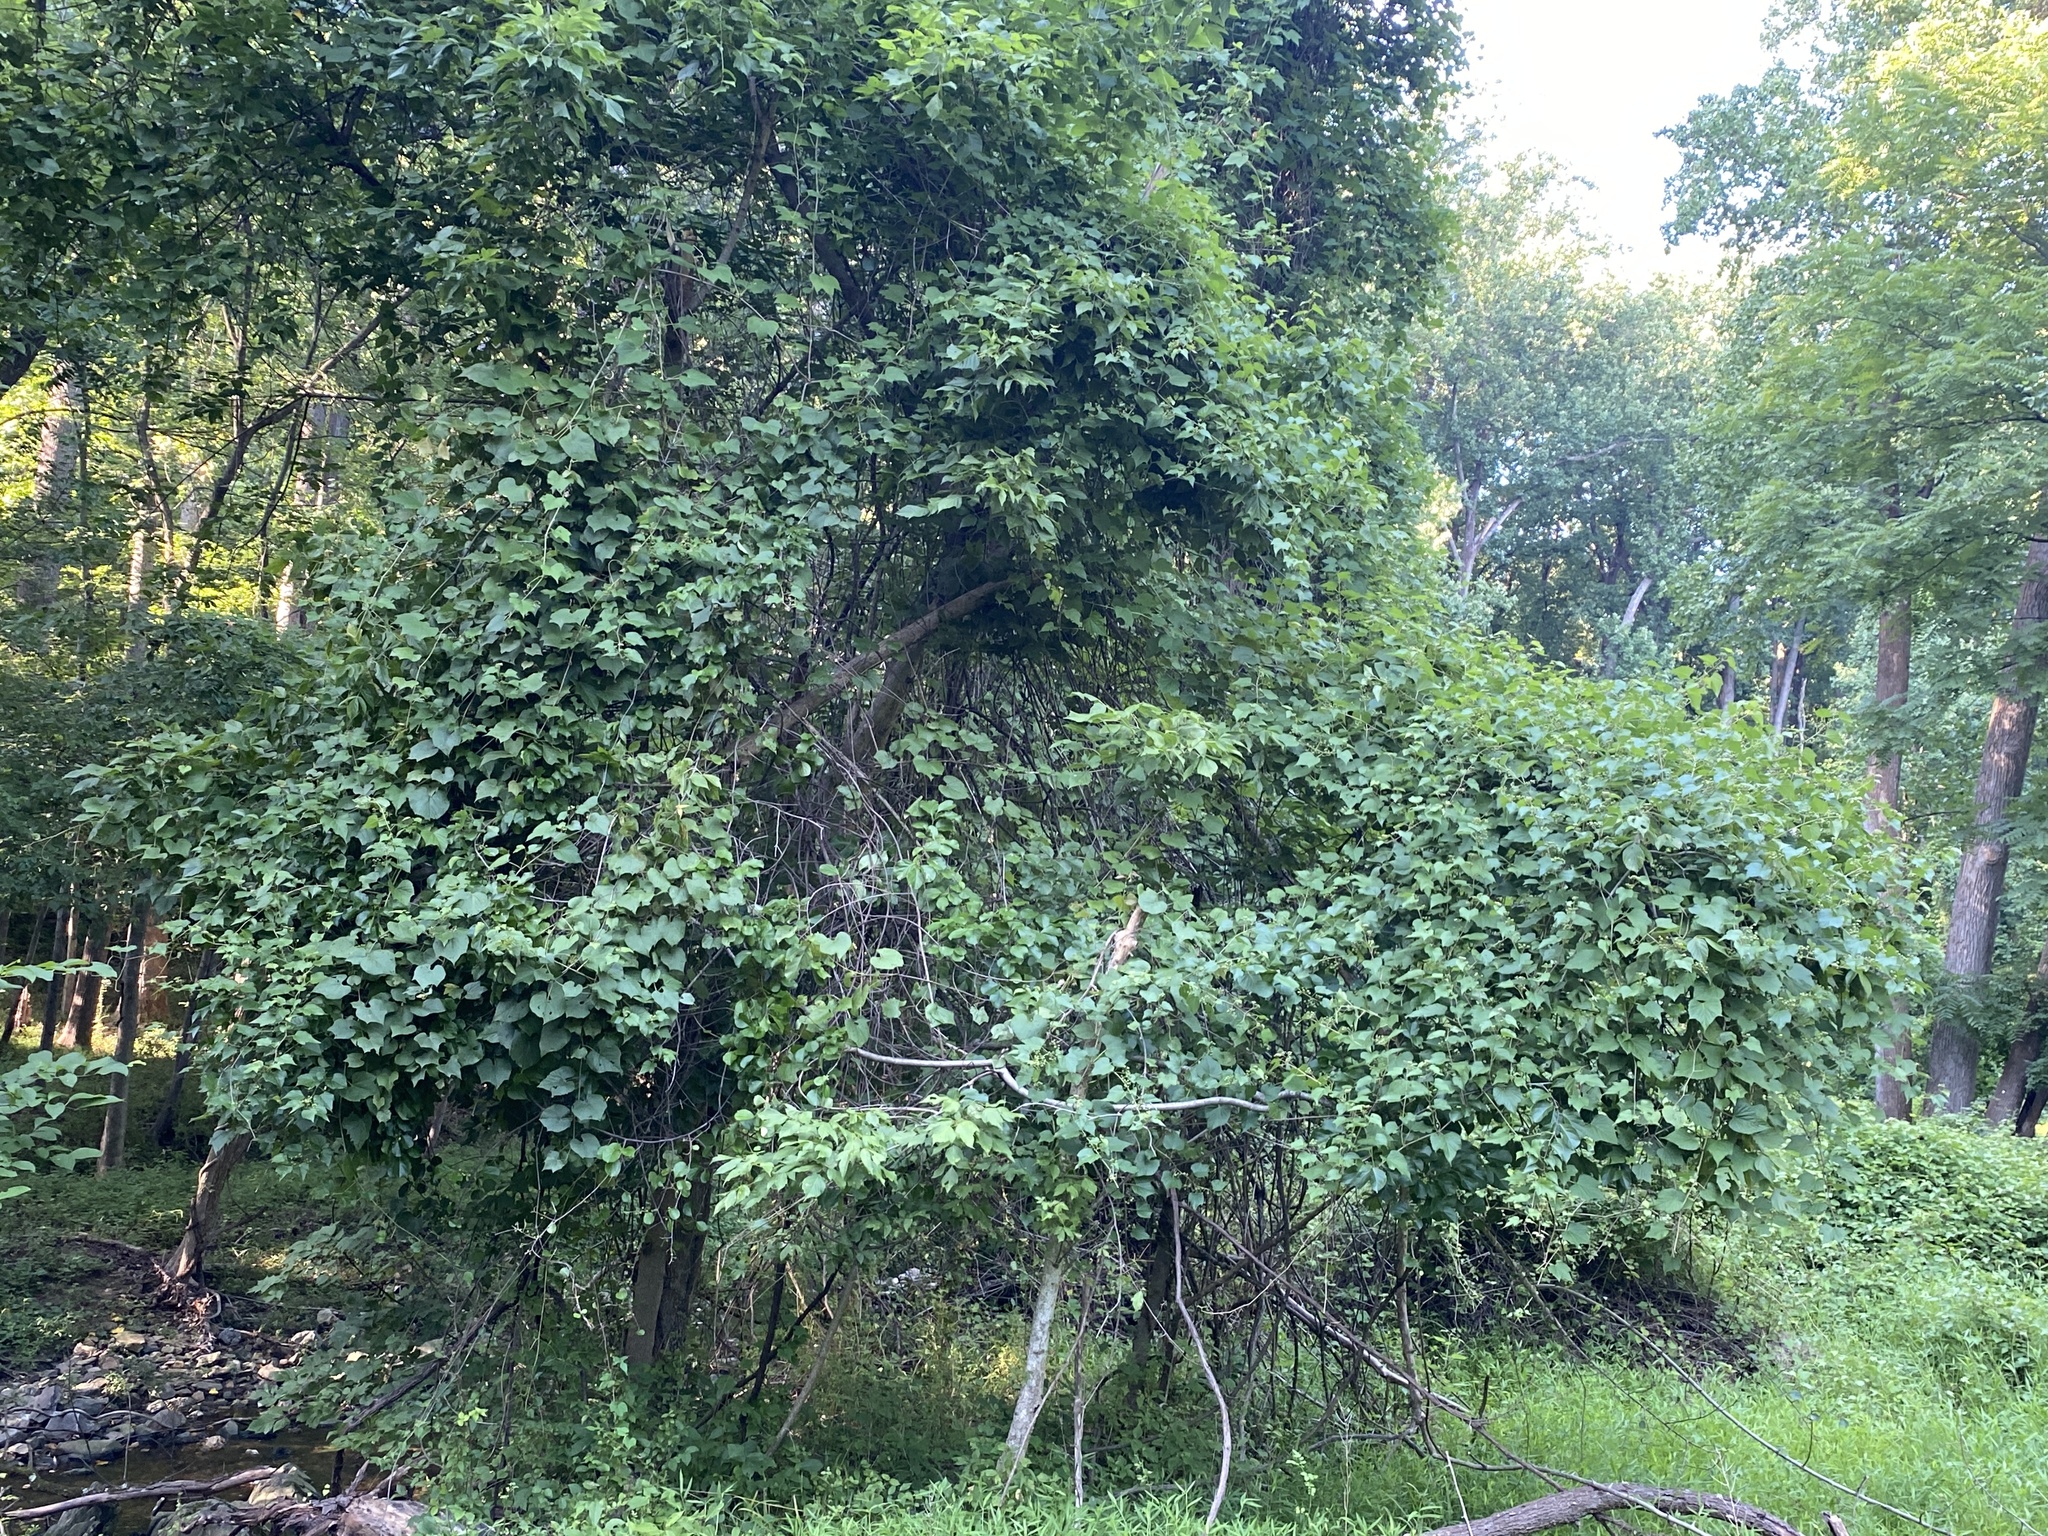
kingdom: Plantae
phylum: Tracheophyta
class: Magnoliopsida
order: Vitales
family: Vitaceae
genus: Ampelopsis
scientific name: Ampelopsis glandulosa
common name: Amur peppervine
